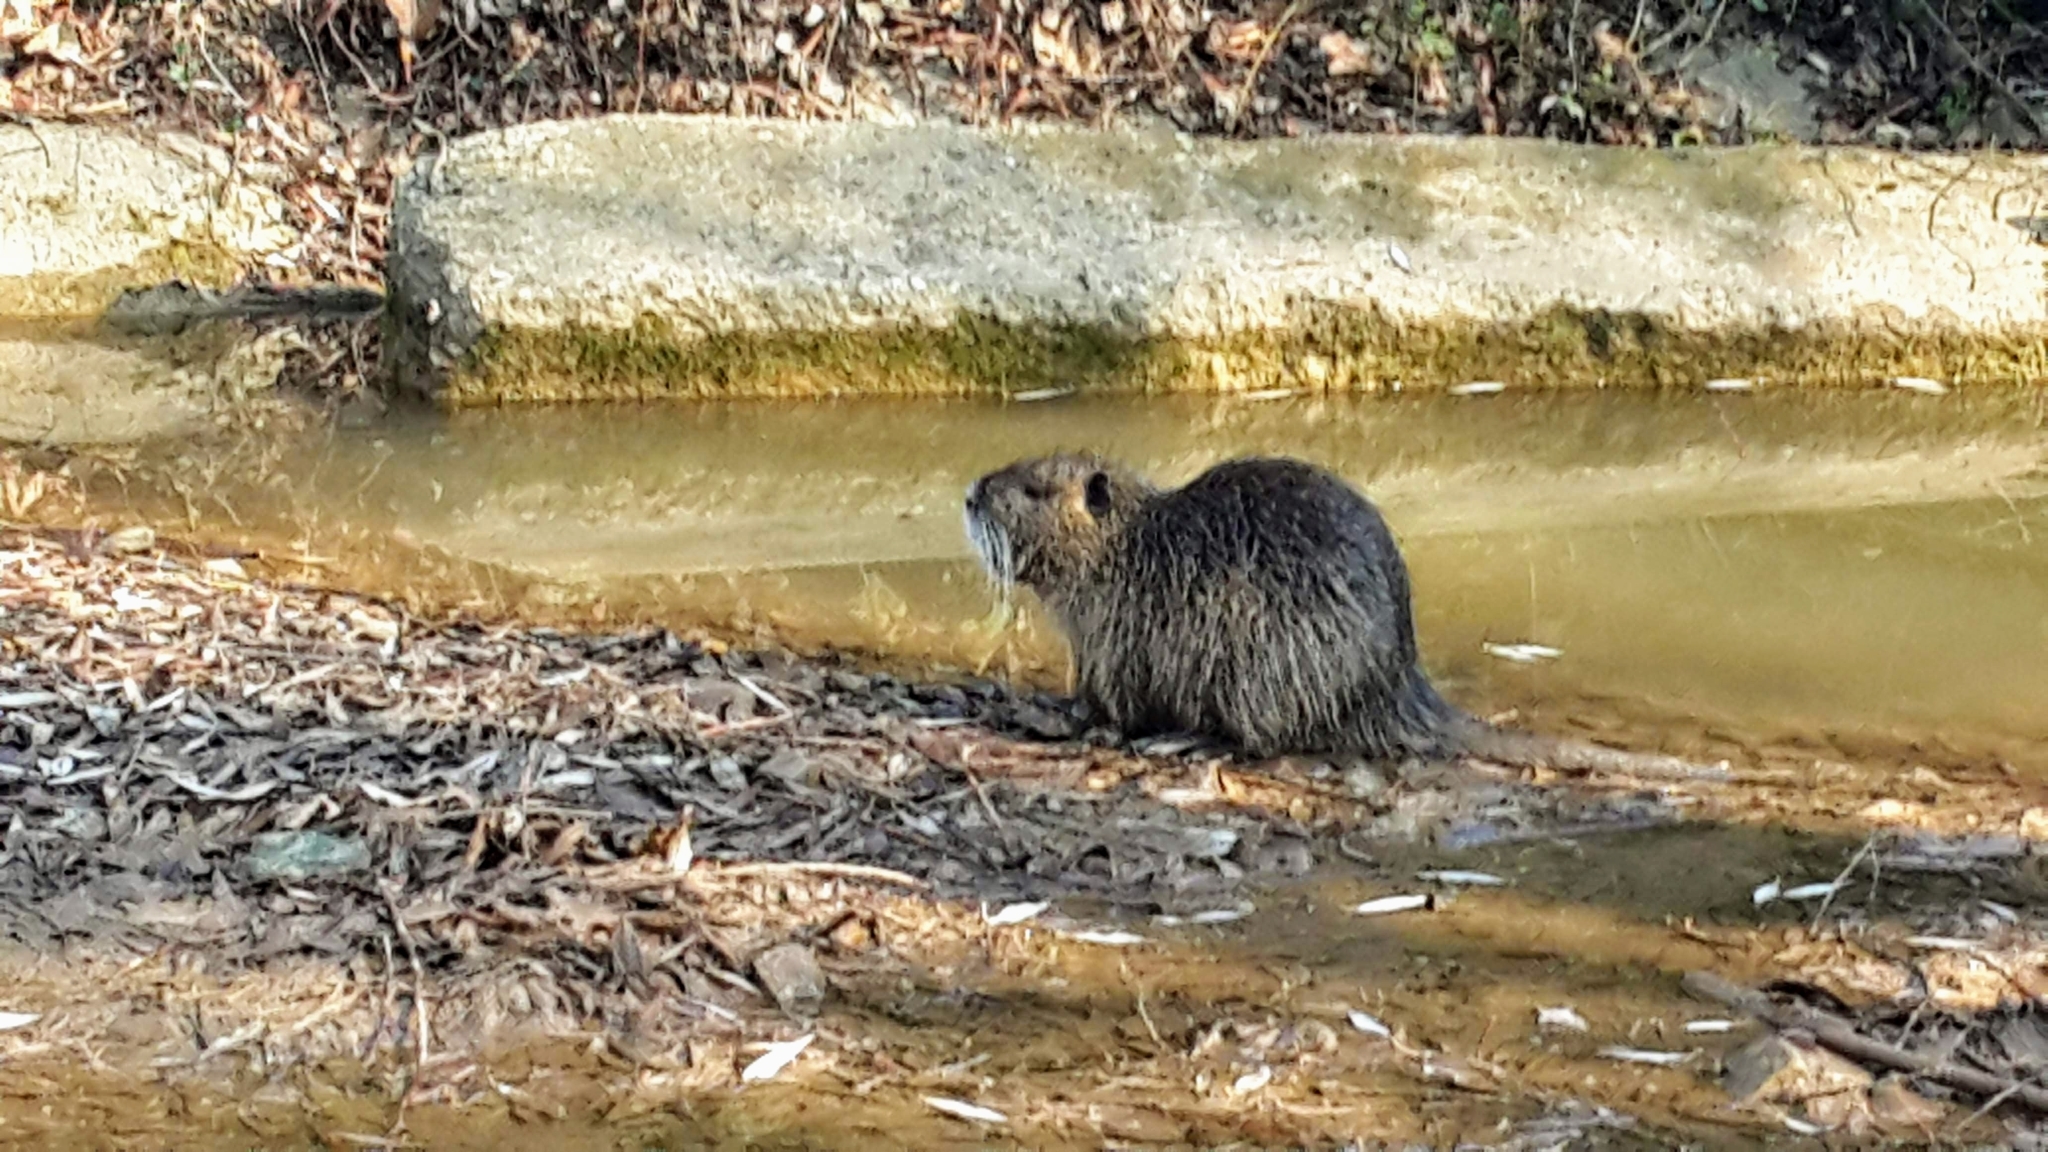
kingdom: Animalia
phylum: Chordata
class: Mammalia
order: Rodentia
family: Myocastoridae
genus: Myocastor
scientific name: Myocastor coypus
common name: Coypu
